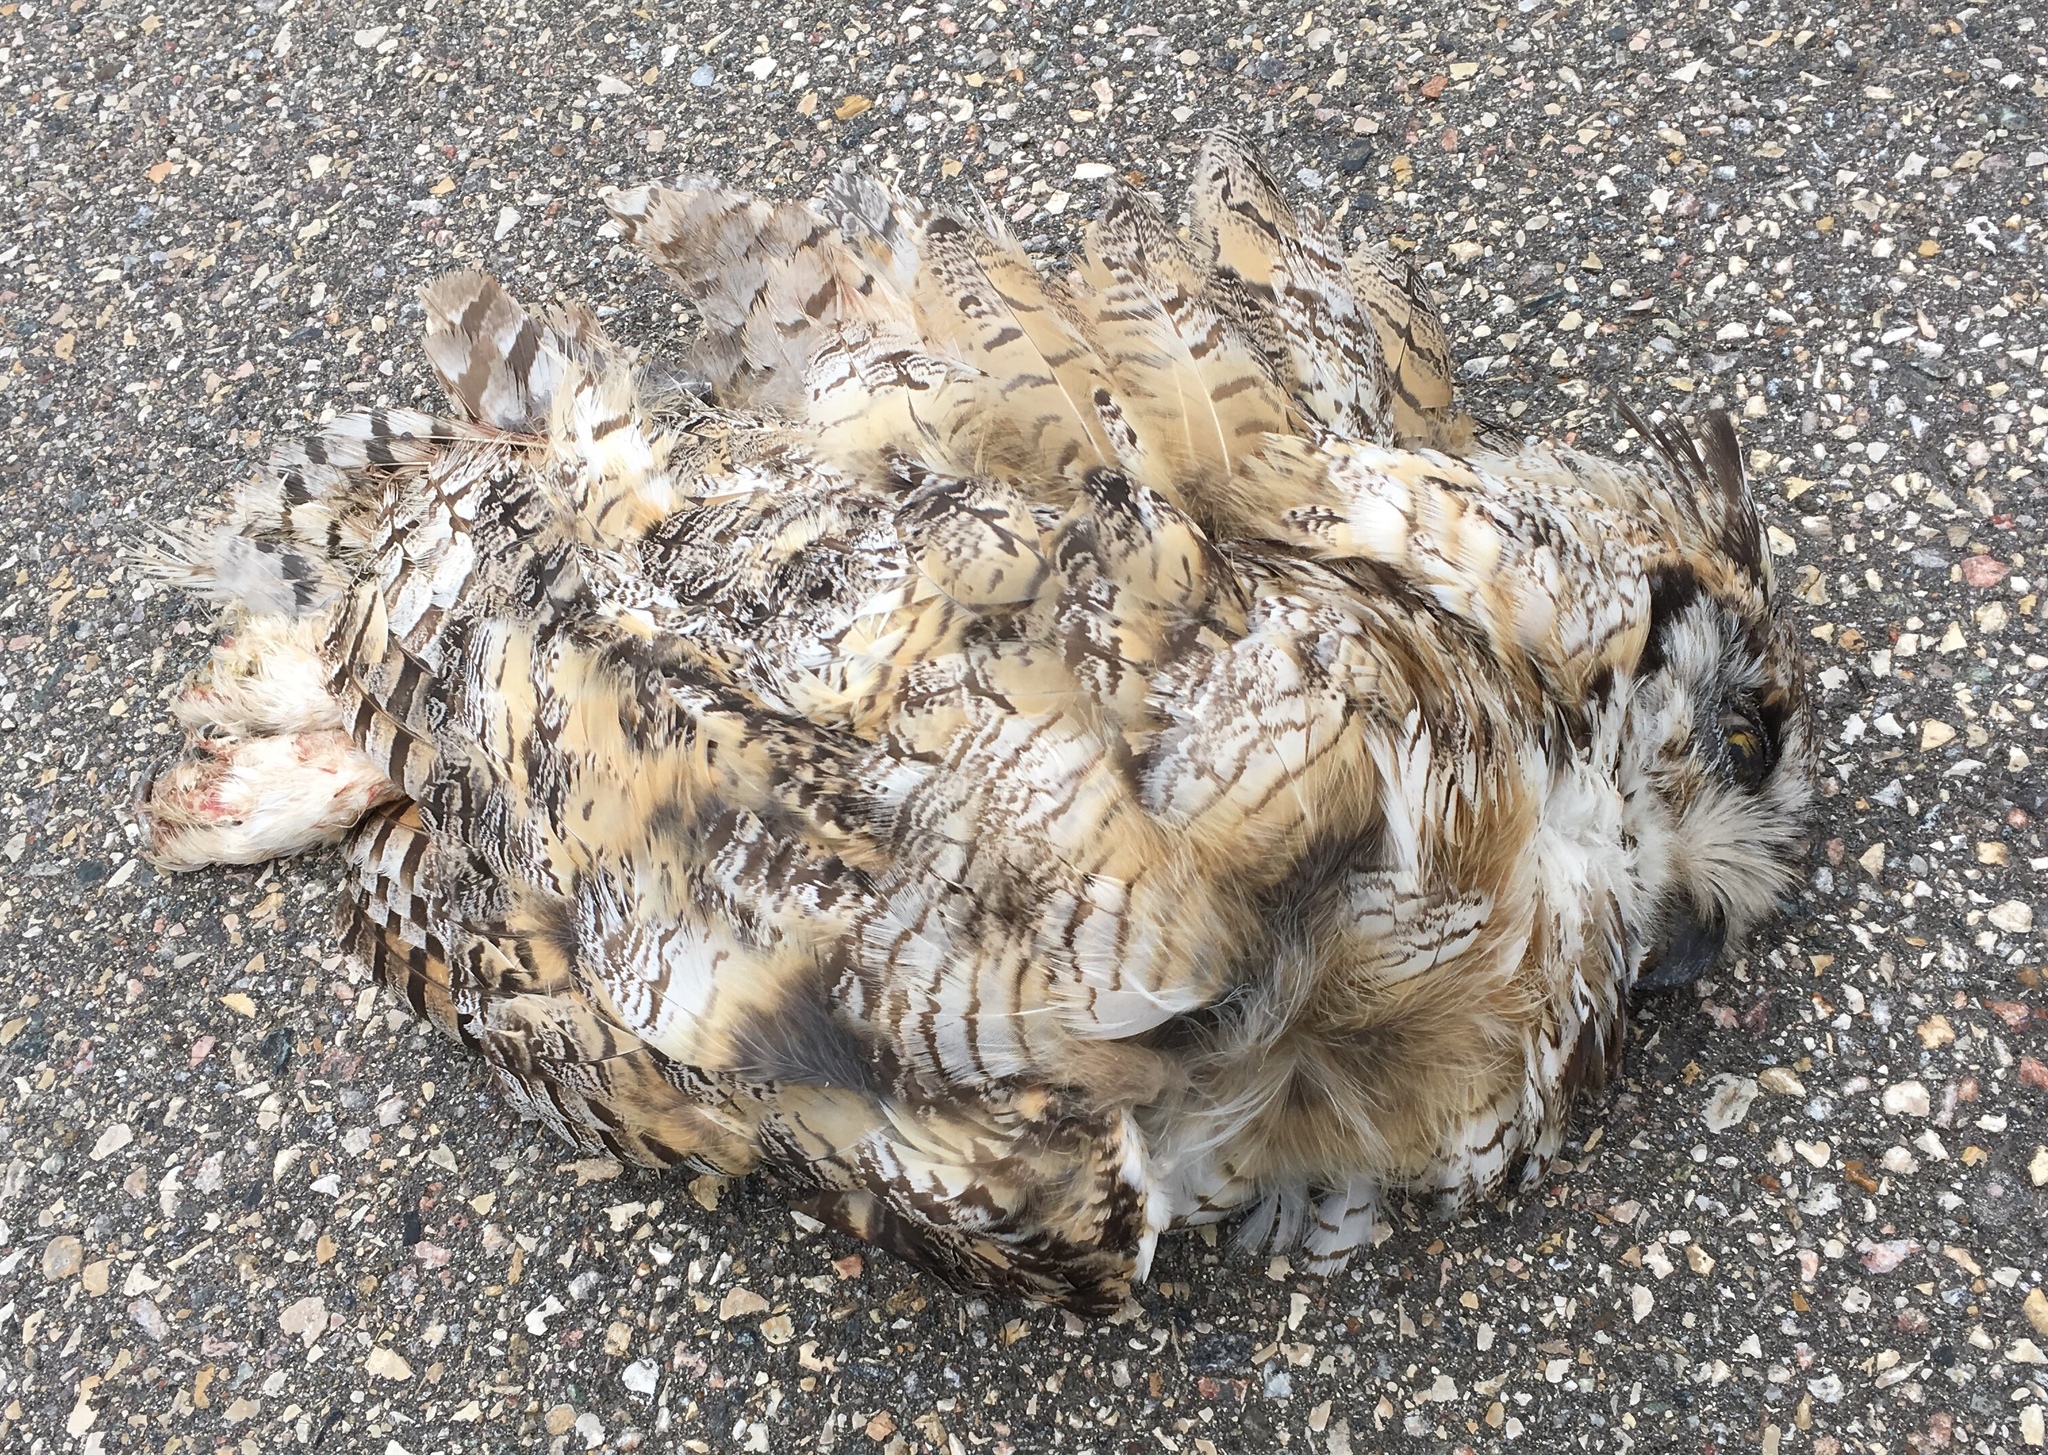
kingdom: Animalia
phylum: Chordata
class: Aves
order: Strigiformes
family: Strigidae
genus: Bubo
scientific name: Bubo virginianus
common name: Great horned owl
